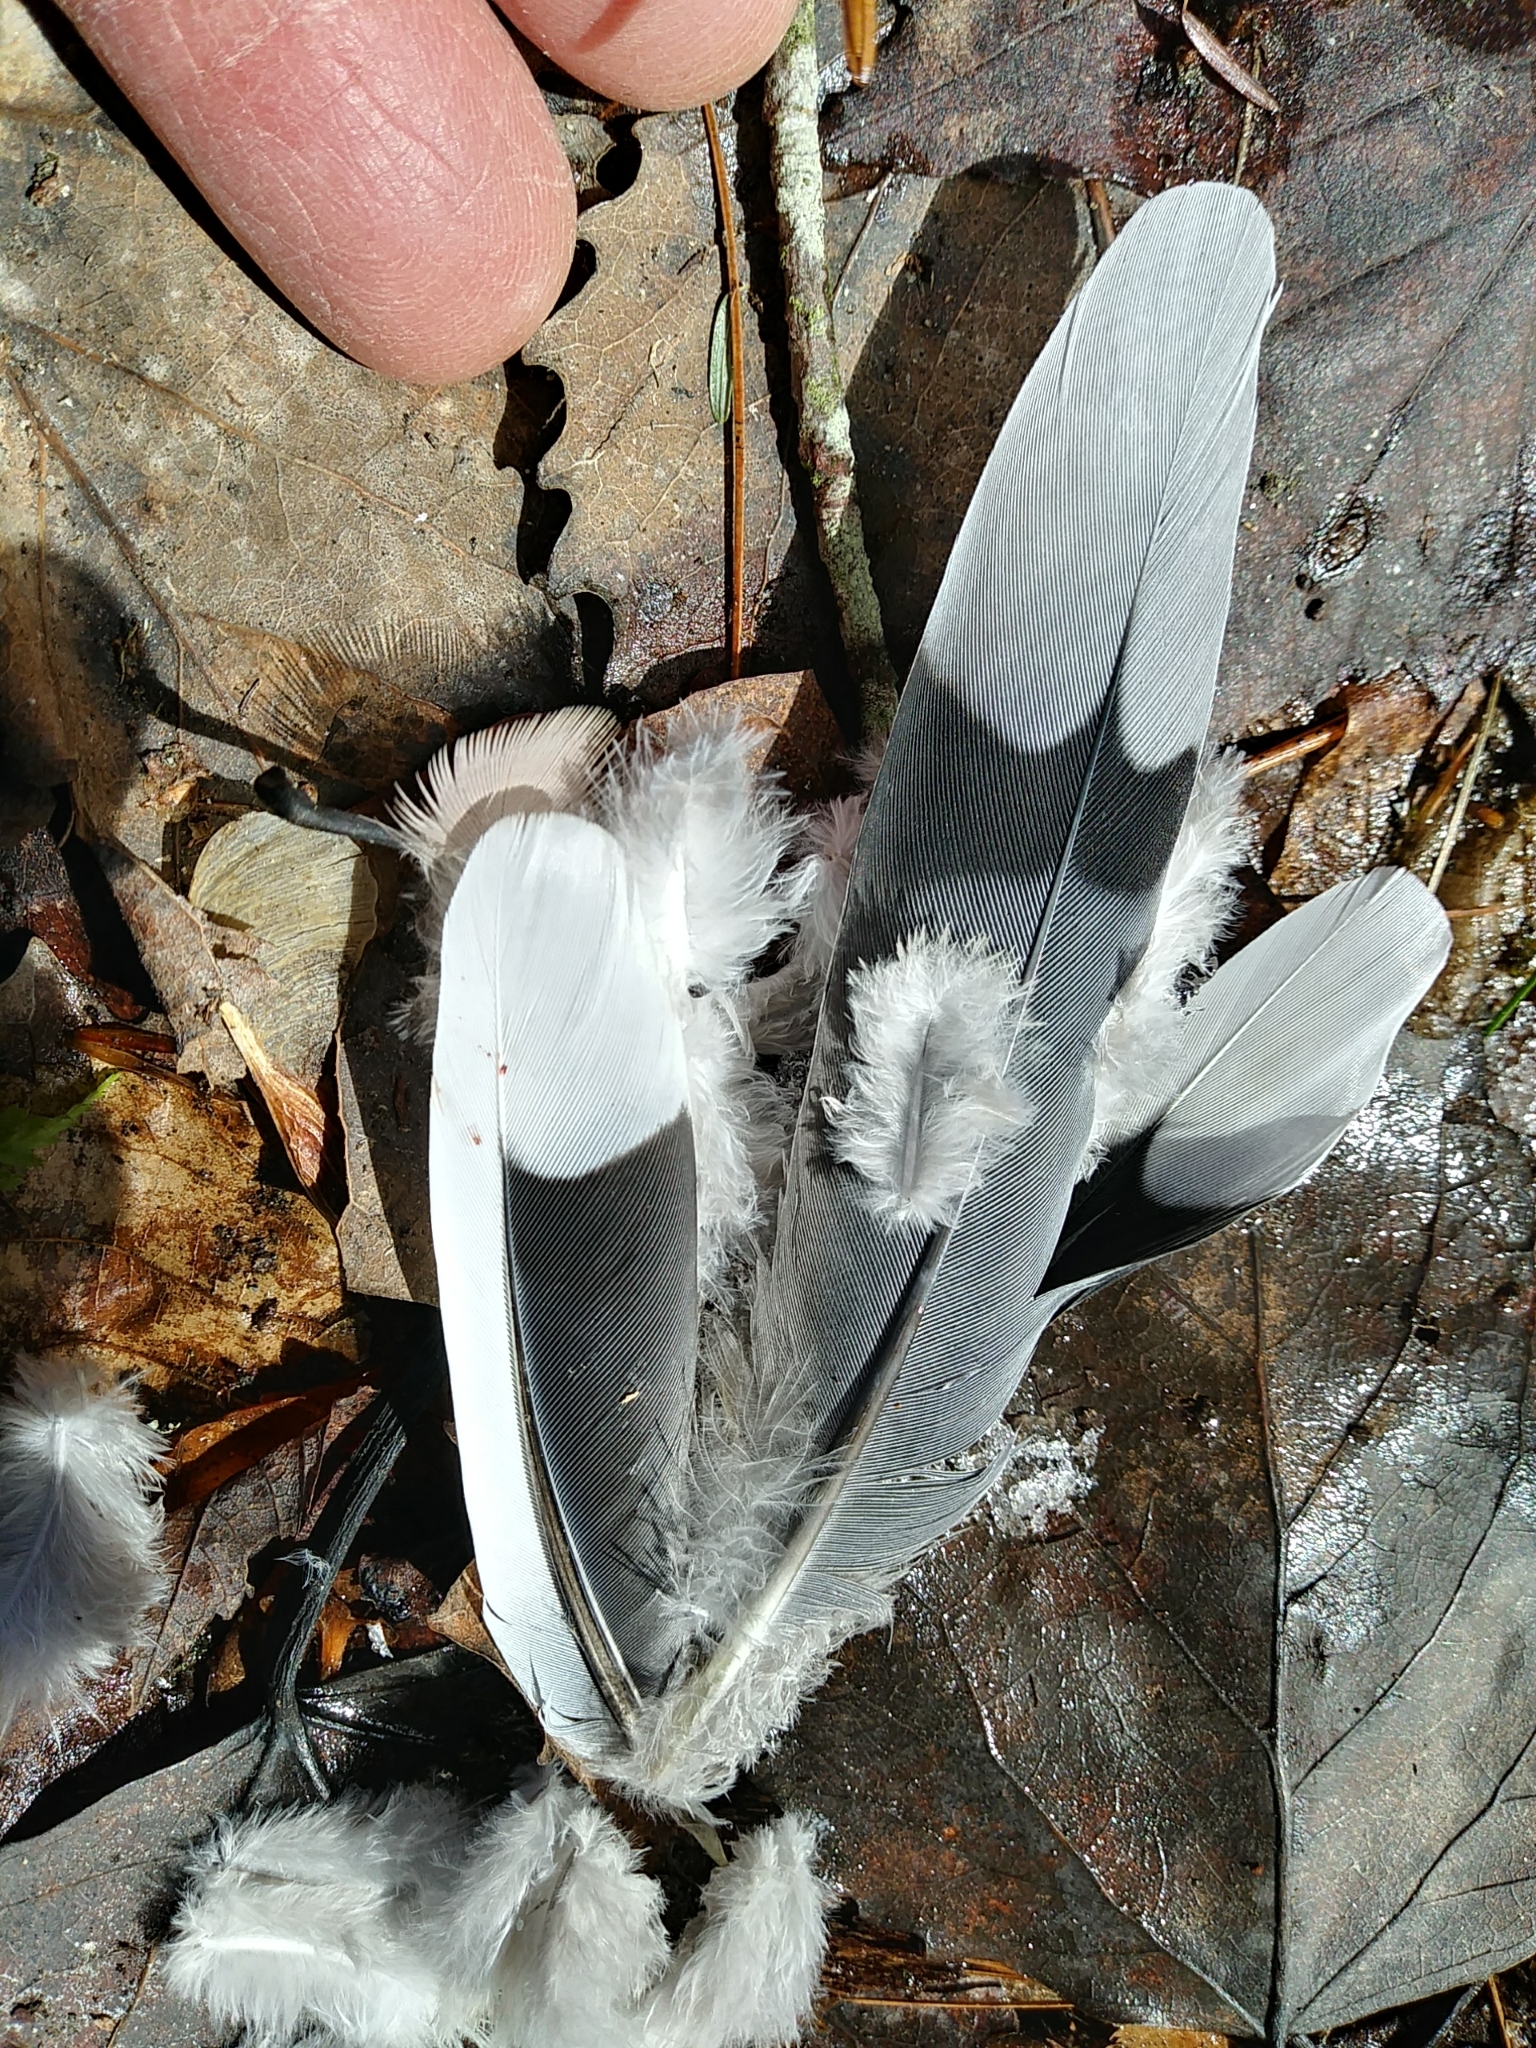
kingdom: Animalia
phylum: Chordata
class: Aves
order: Columbiformes
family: Columbidae
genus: Zenaida
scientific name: Zenaida macroura
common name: Mourning dove
